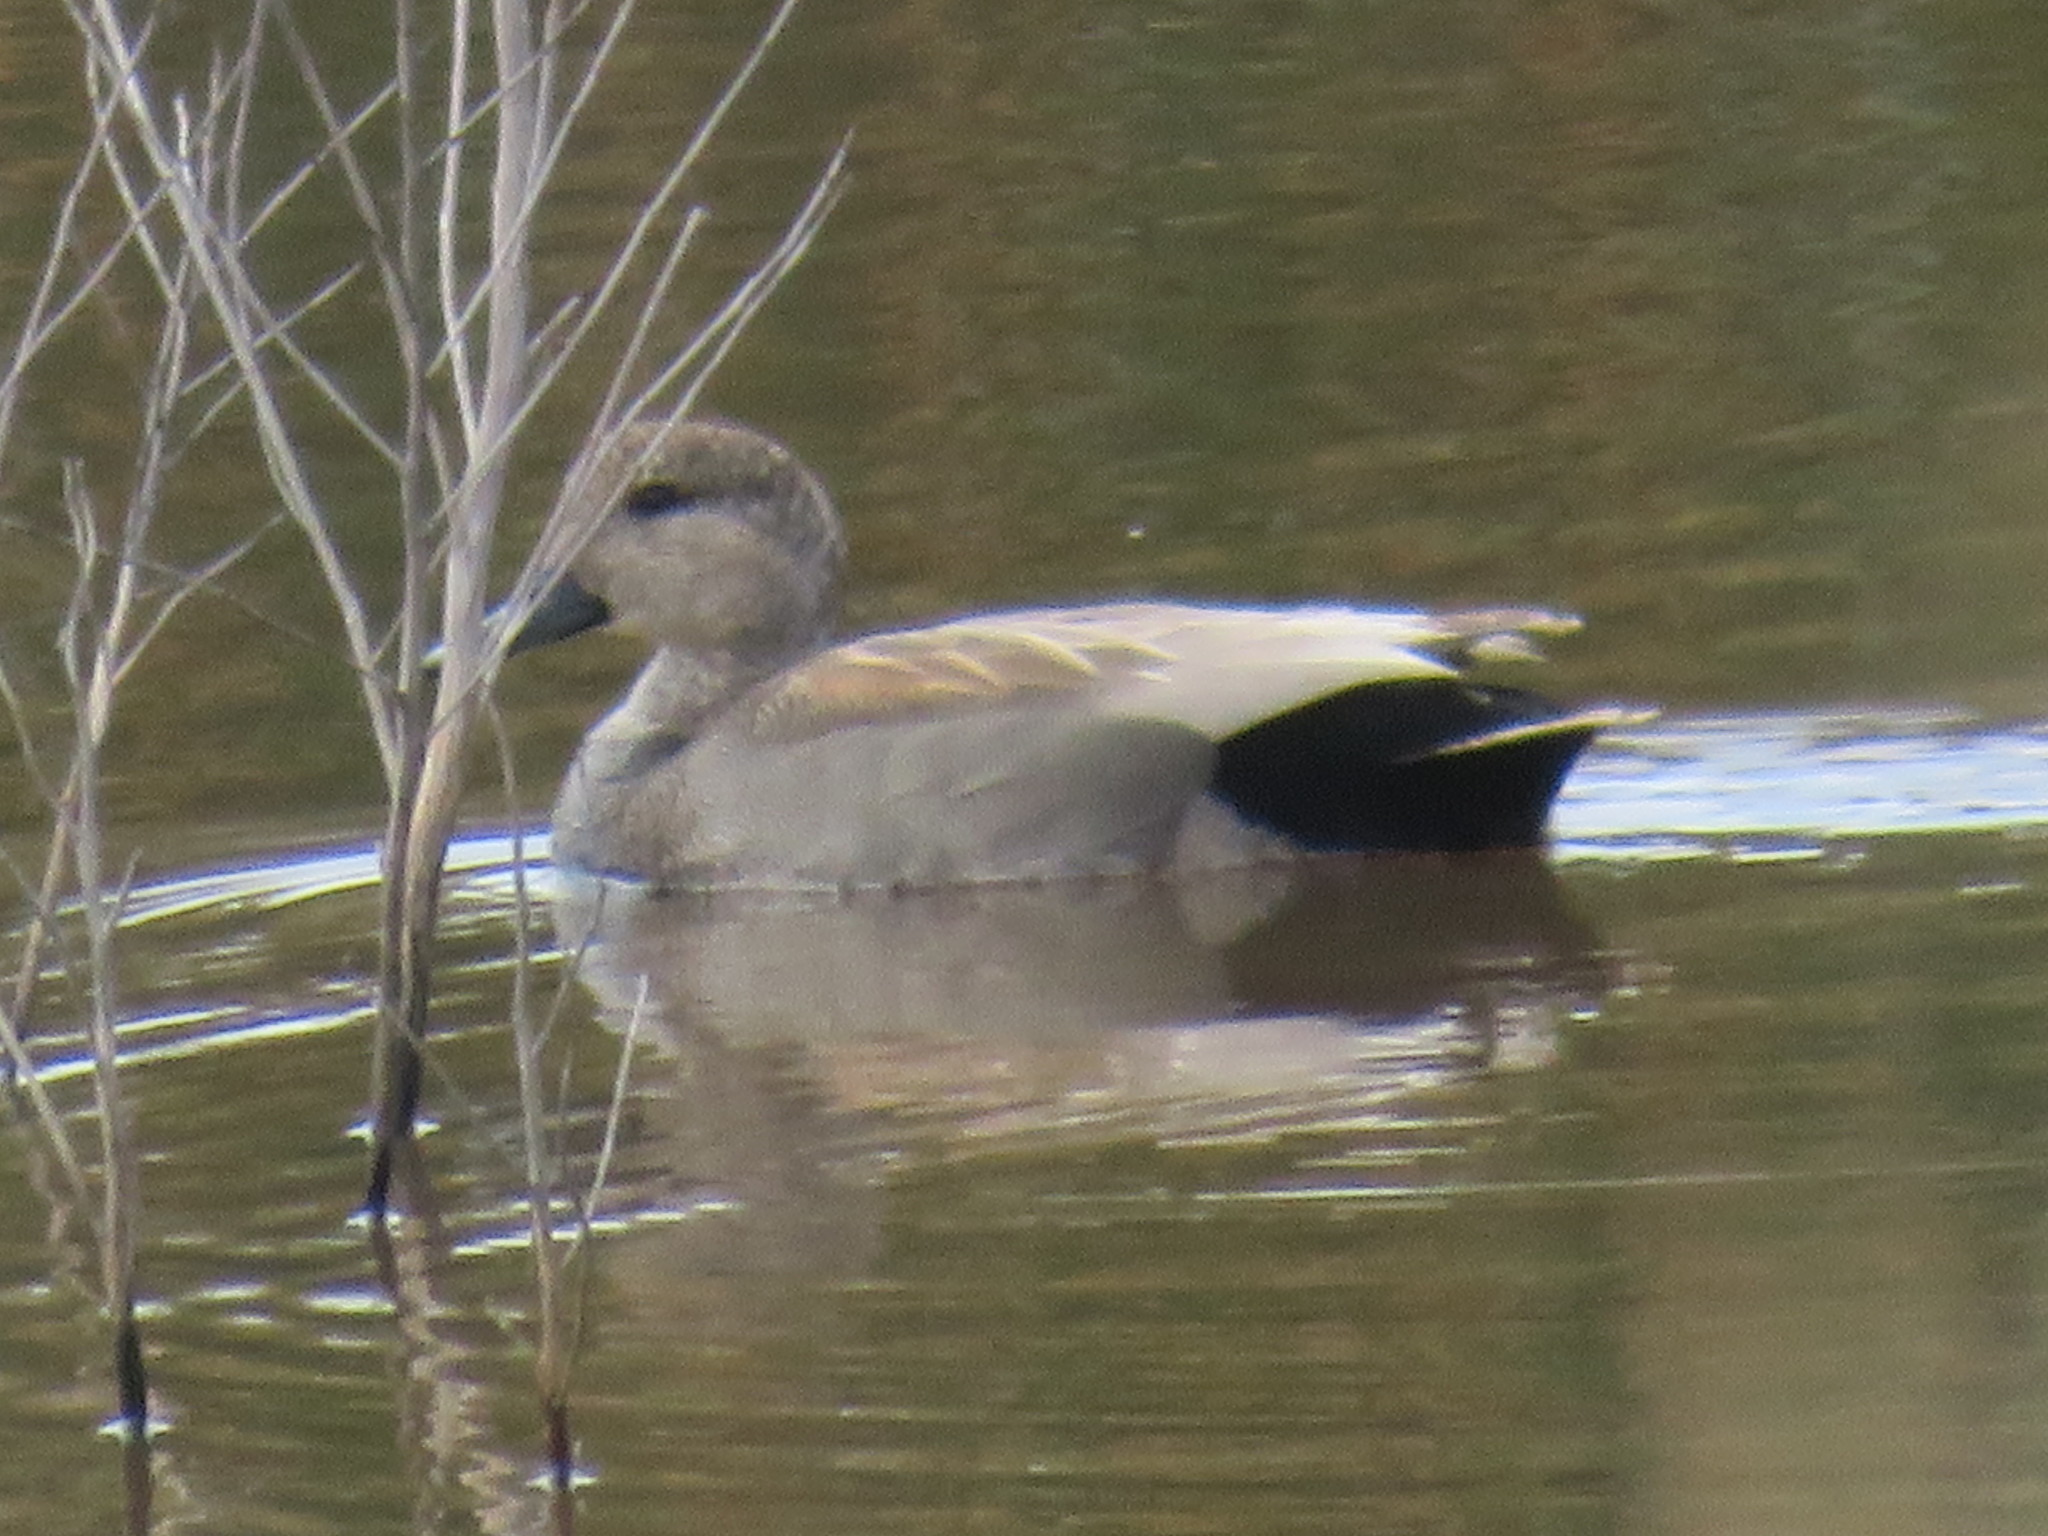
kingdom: Animalia
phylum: Chordata
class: Aves
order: Anseriformes
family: Anatidae
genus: Mareca
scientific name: Mareca strepera
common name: Gadwall
